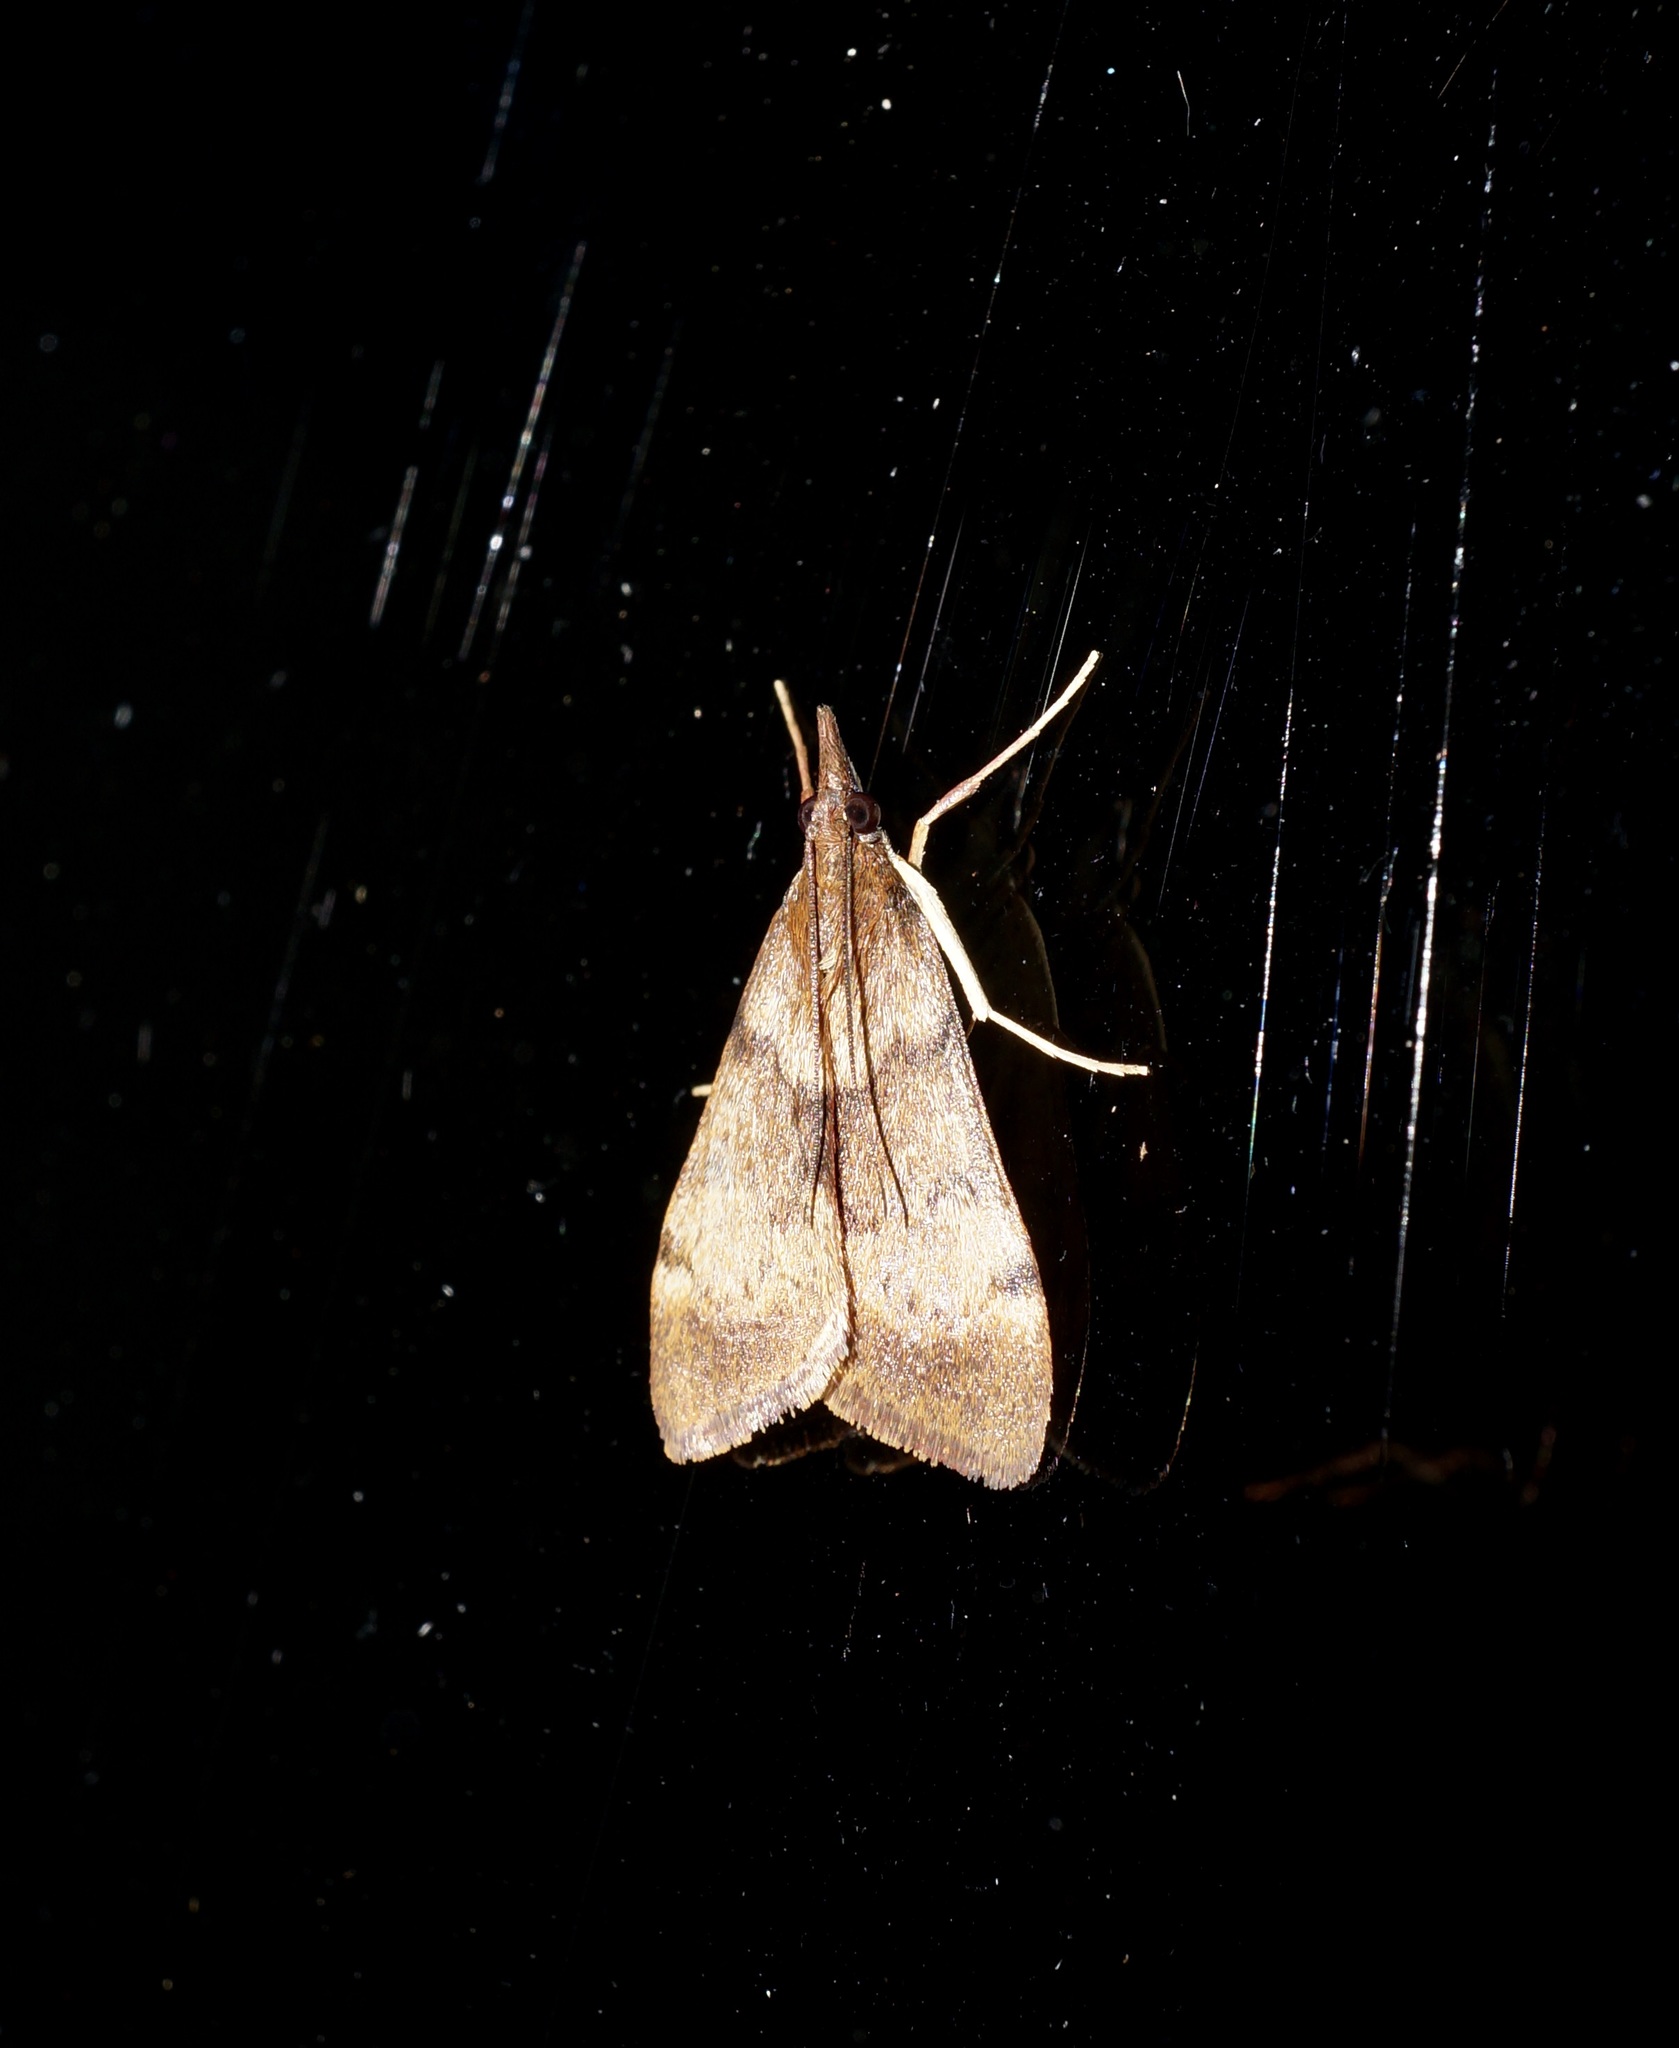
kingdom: Animalia
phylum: Arthropoda
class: Insecta
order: Lepidoptera
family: Crambidae
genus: Uresiphita
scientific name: Uresiphita
